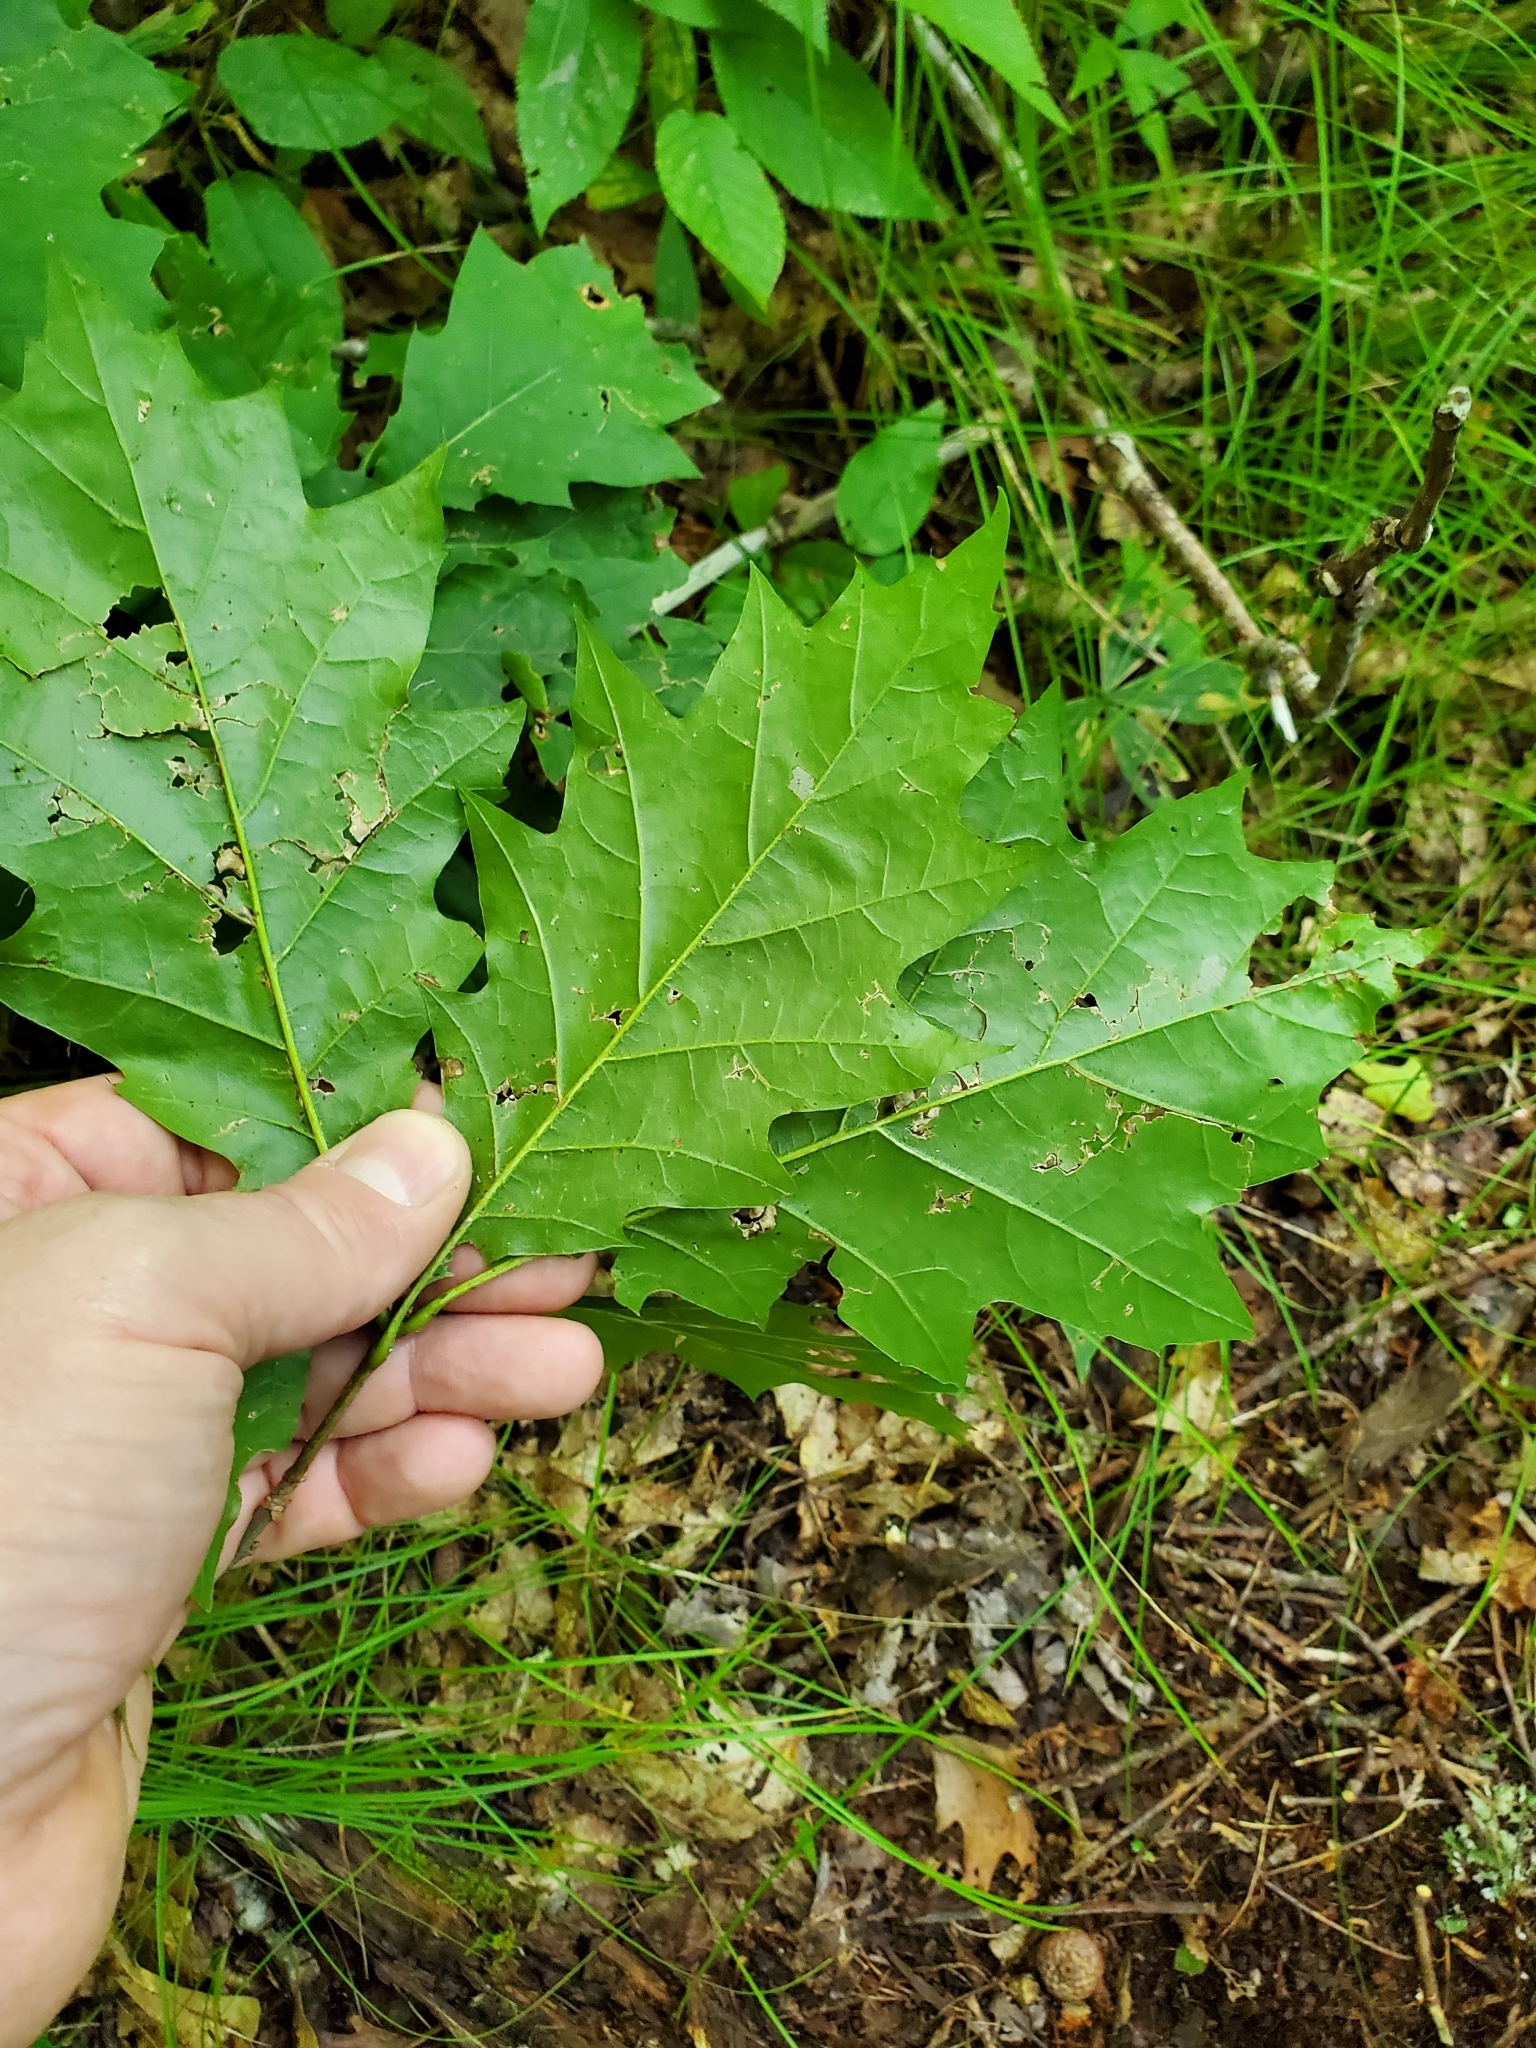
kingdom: Plantae
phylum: Tracheophyta
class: Magnoliopsida
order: Fagales
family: Fagaceae
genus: Quercus
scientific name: Quercus rubra
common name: Red oak
